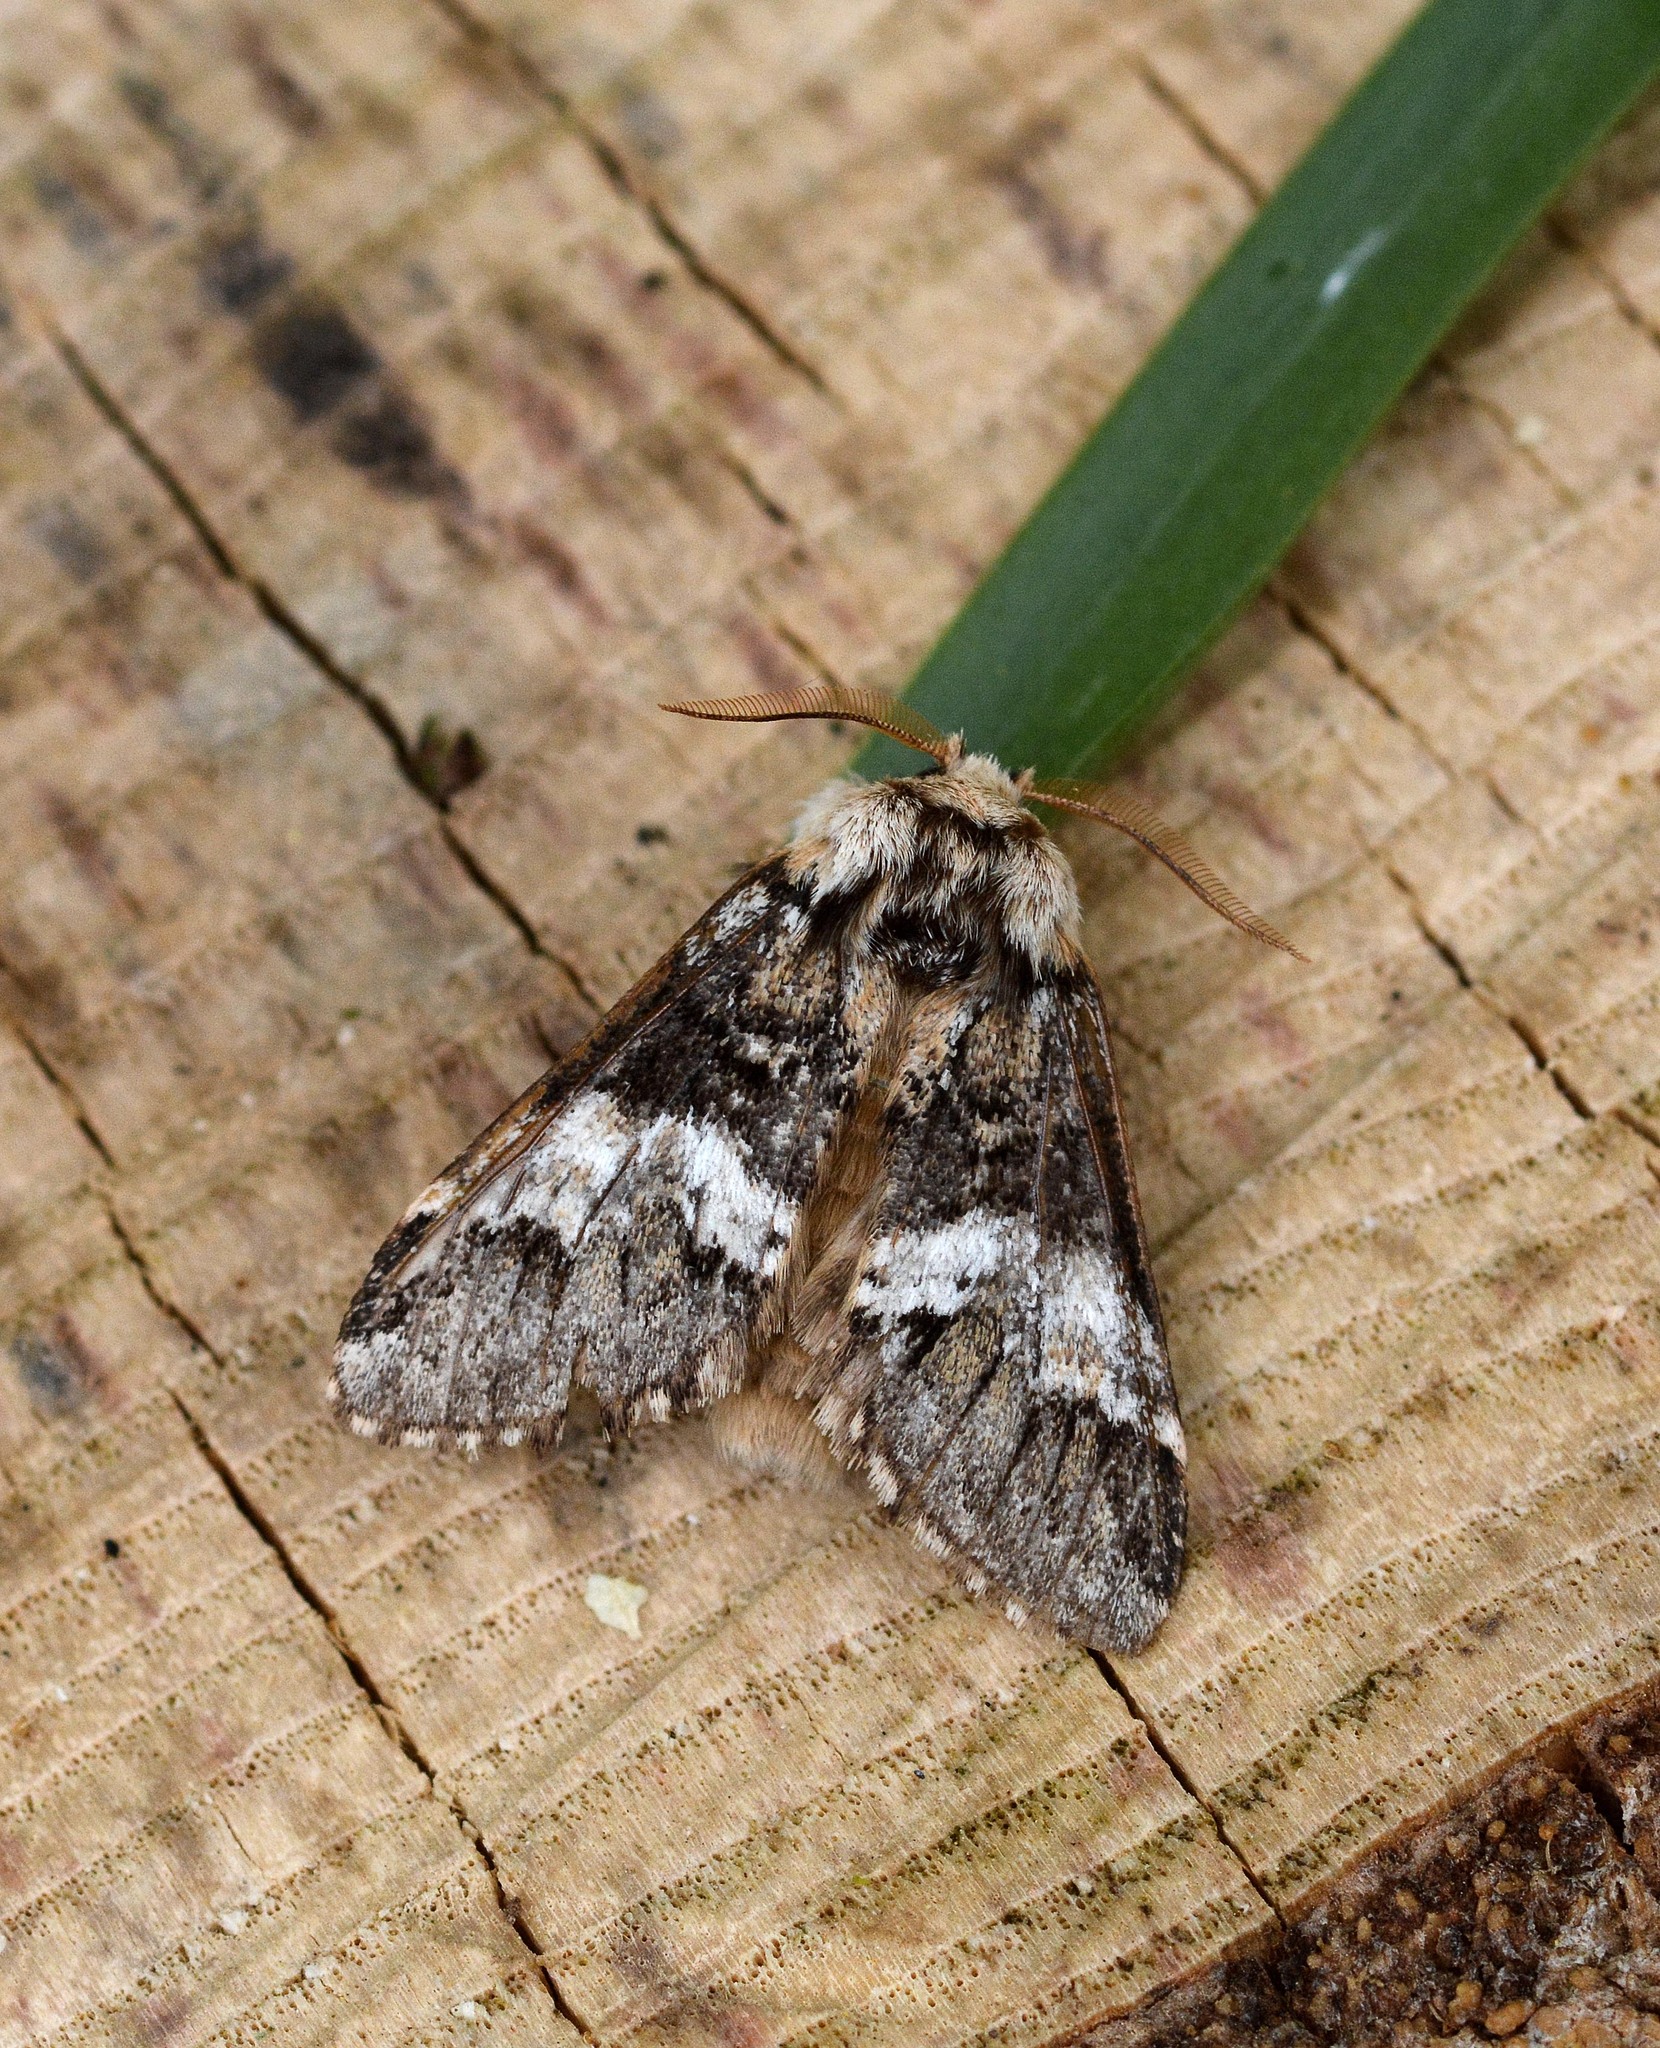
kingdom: Animalia
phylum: Arthropoda
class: Insecta
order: Lepidoptera
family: Notodontidae
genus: Drymonia
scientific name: Drymonia dodonaea
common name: Marbled brown
